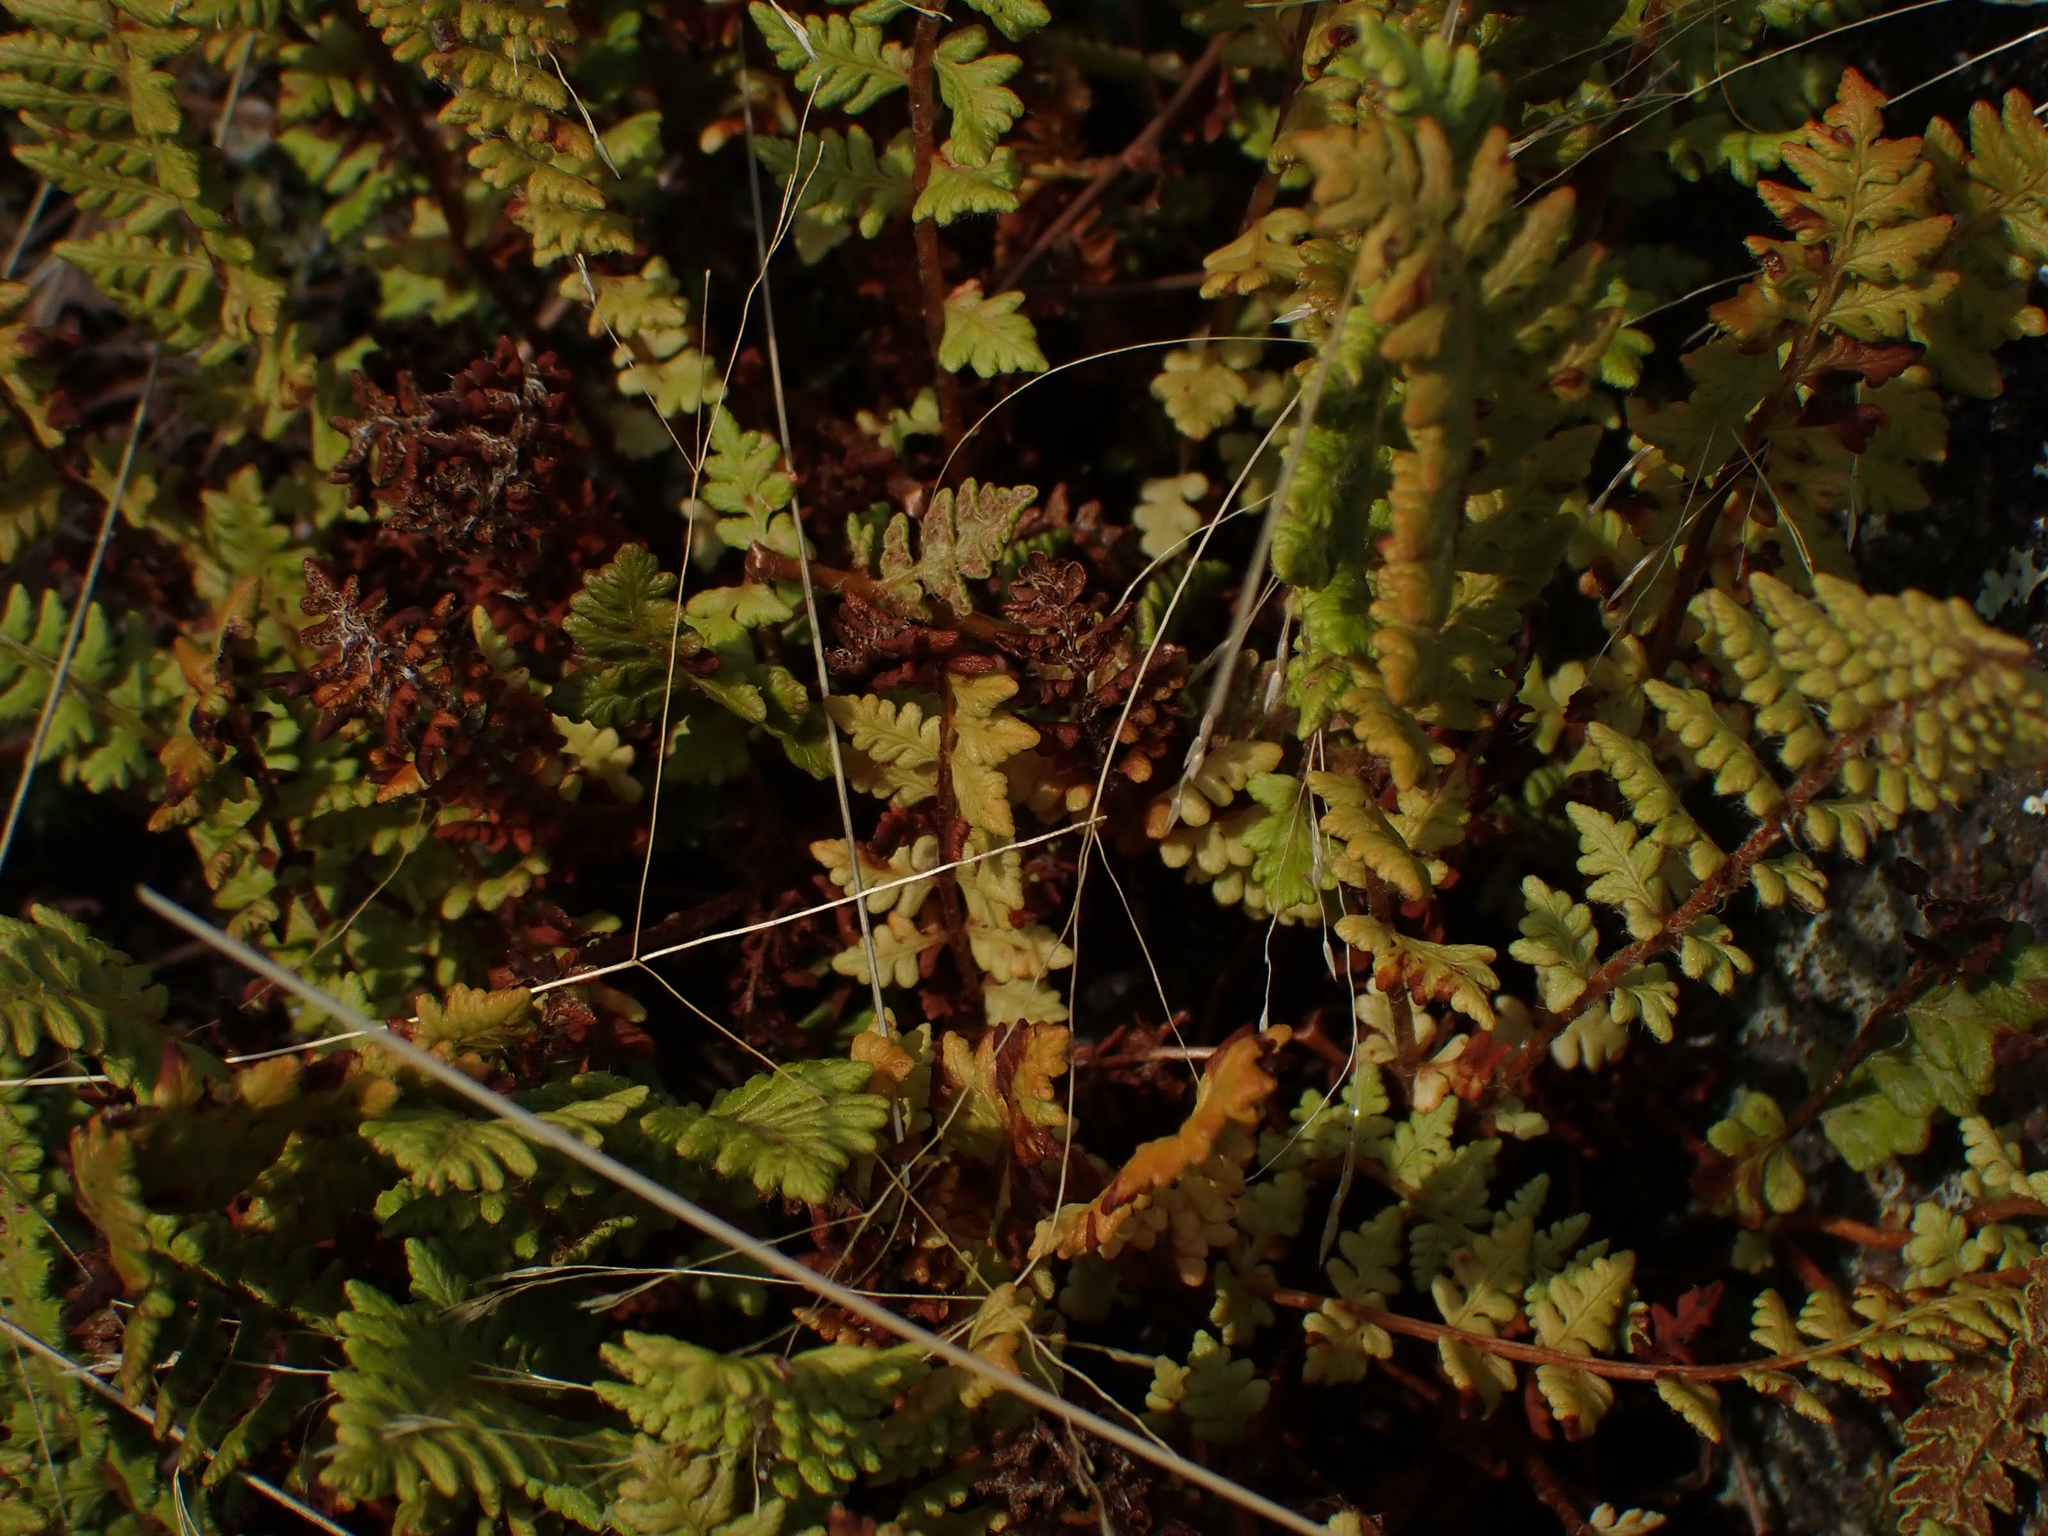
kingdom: Plantae
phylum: Tracheophyta
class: Polypodiopsida
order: Polypodiales
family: Woodsiaceae
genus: Woodsia
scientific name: Woodsia ilvensis
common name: Fragrant woodsia
